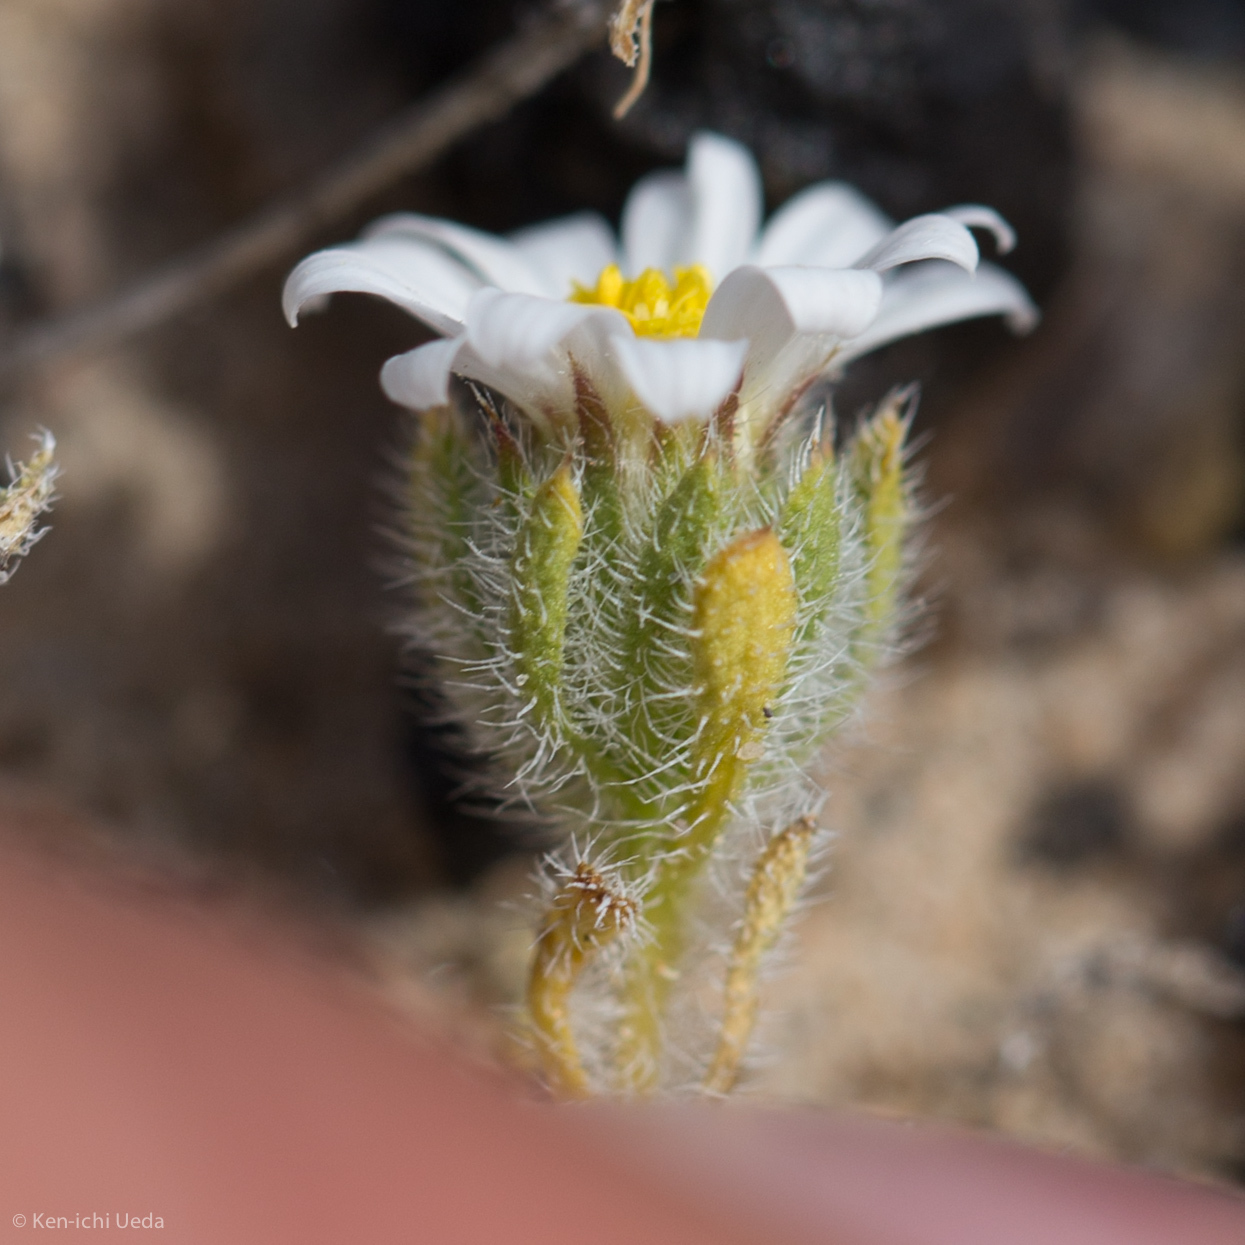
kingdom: Plantae
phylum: Tracheophyta
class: Magnoliopsida
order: Asterales
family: Asteraceae
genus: Monoptilon
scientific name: Monoptilon bellioides
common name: Bristly desertstar
